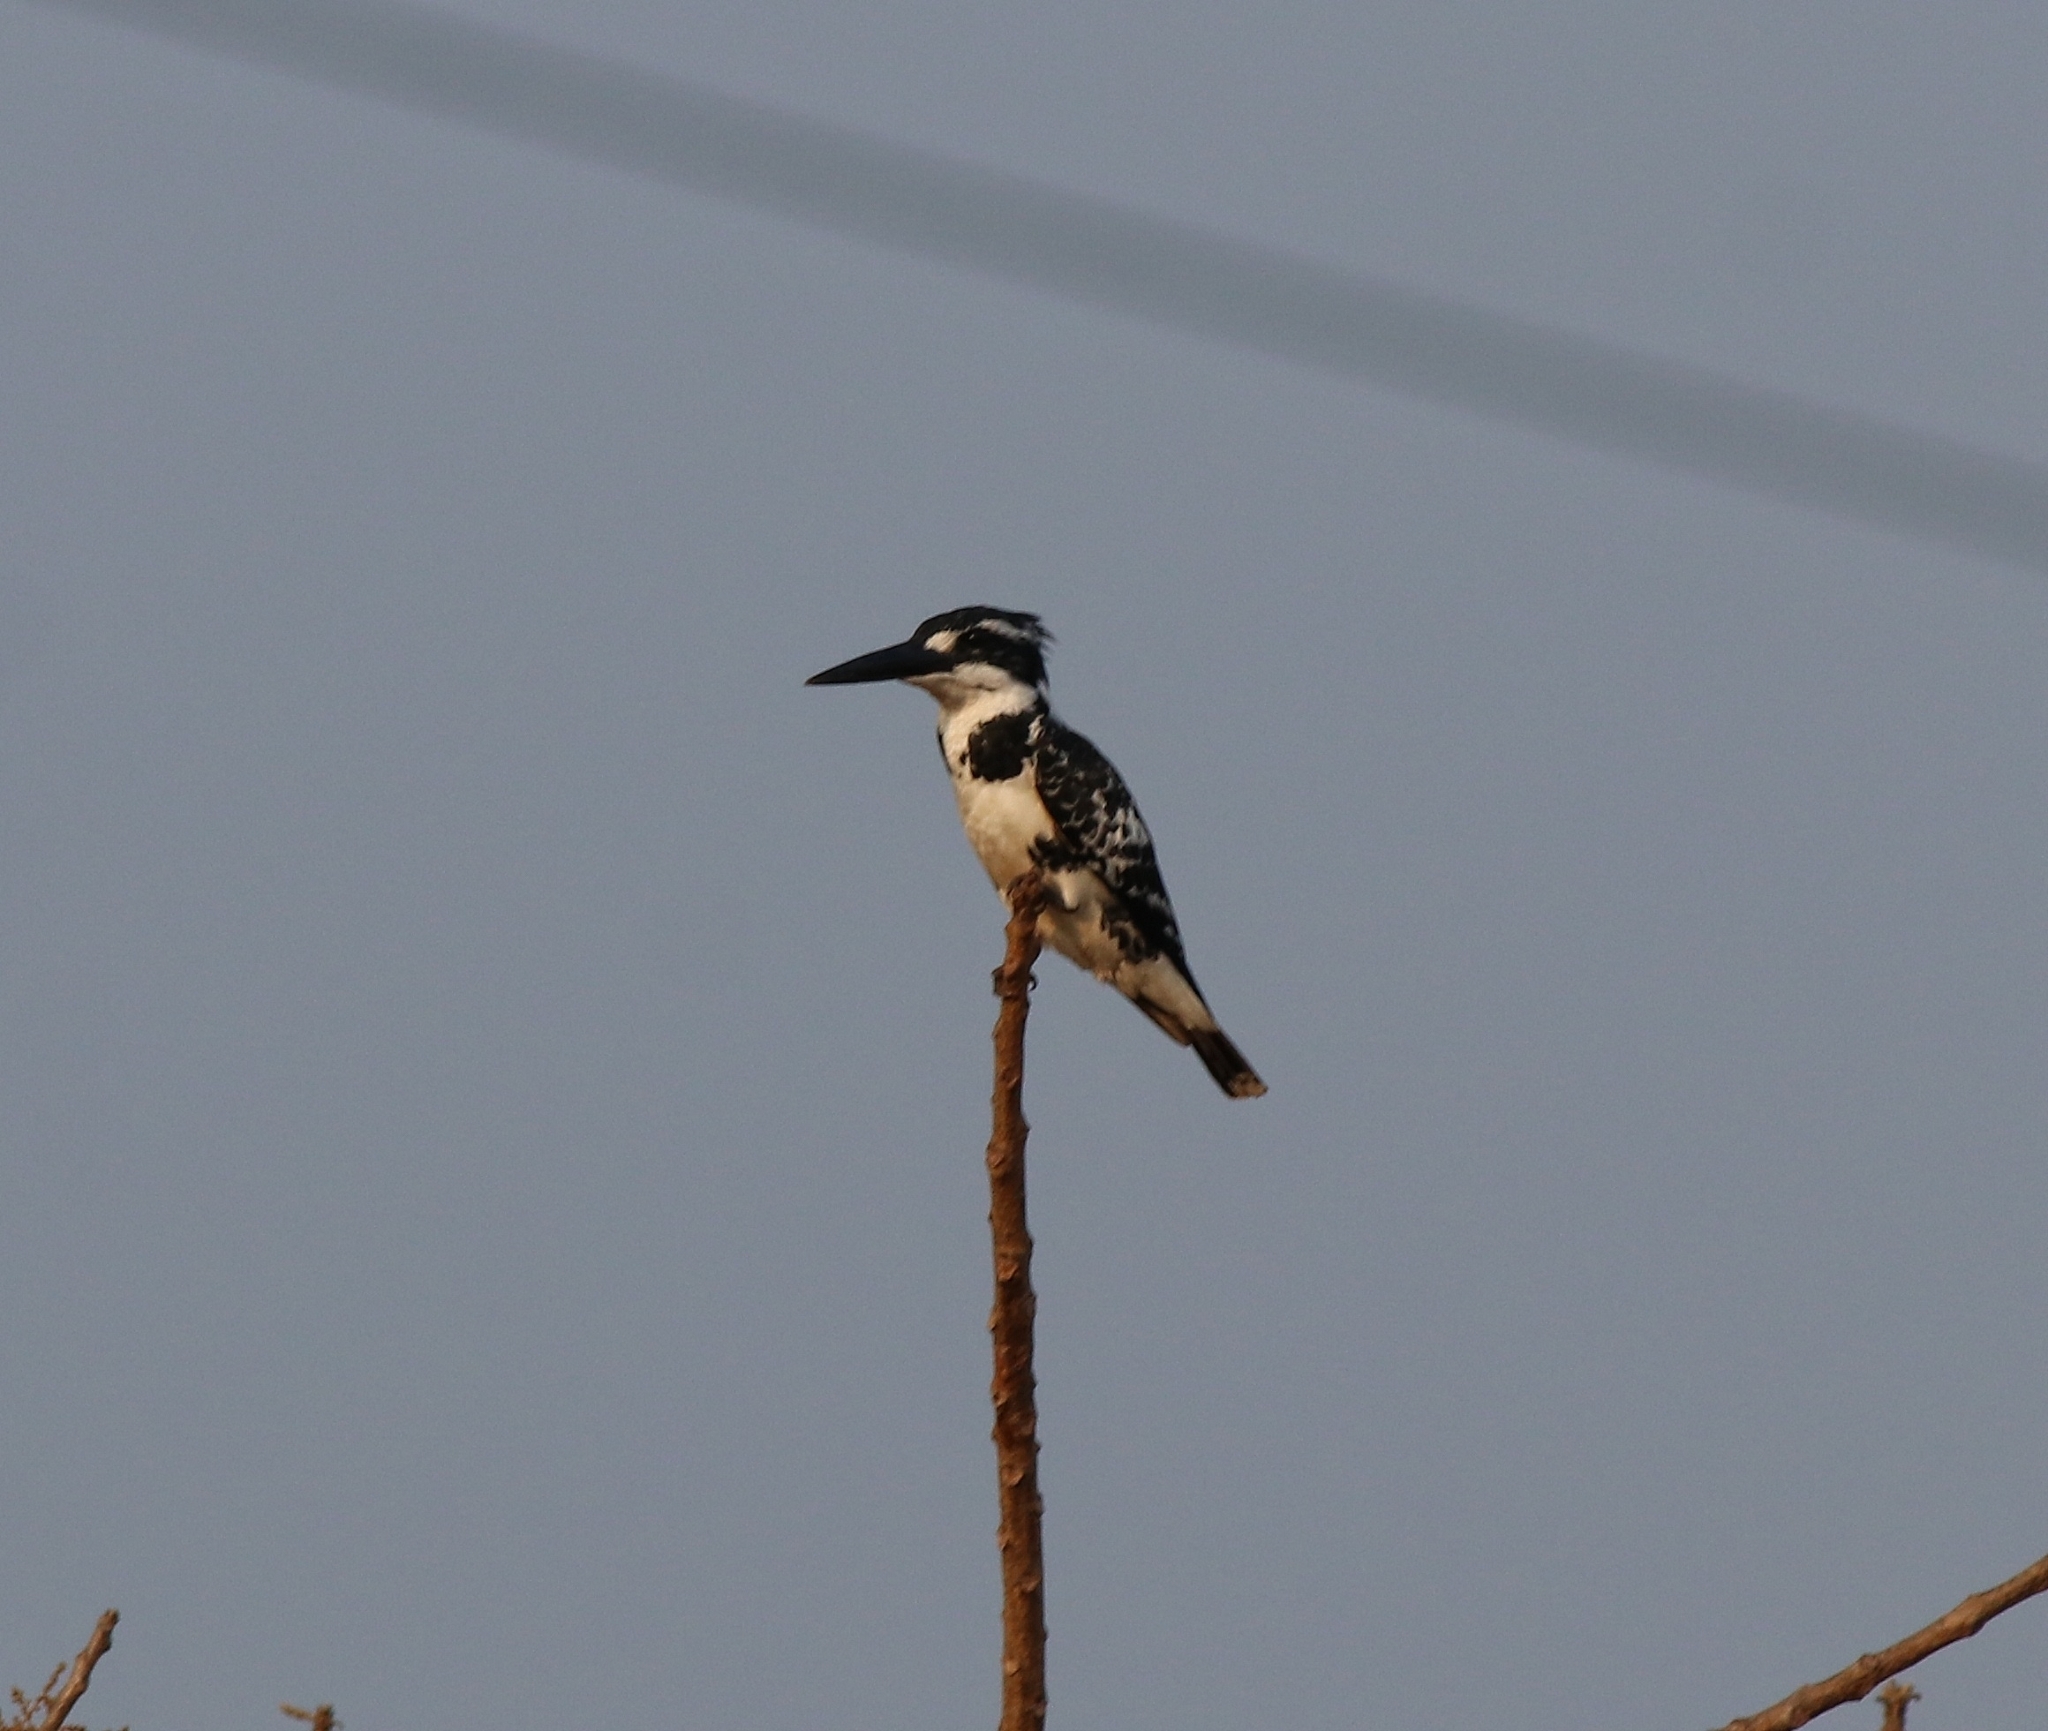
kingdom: Animalia
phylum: Chordata
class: Aves
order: Coraciiformes
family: Alcedinidae
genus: Ceryle
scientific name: Ceryle rudis
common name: Pied kingfisher
